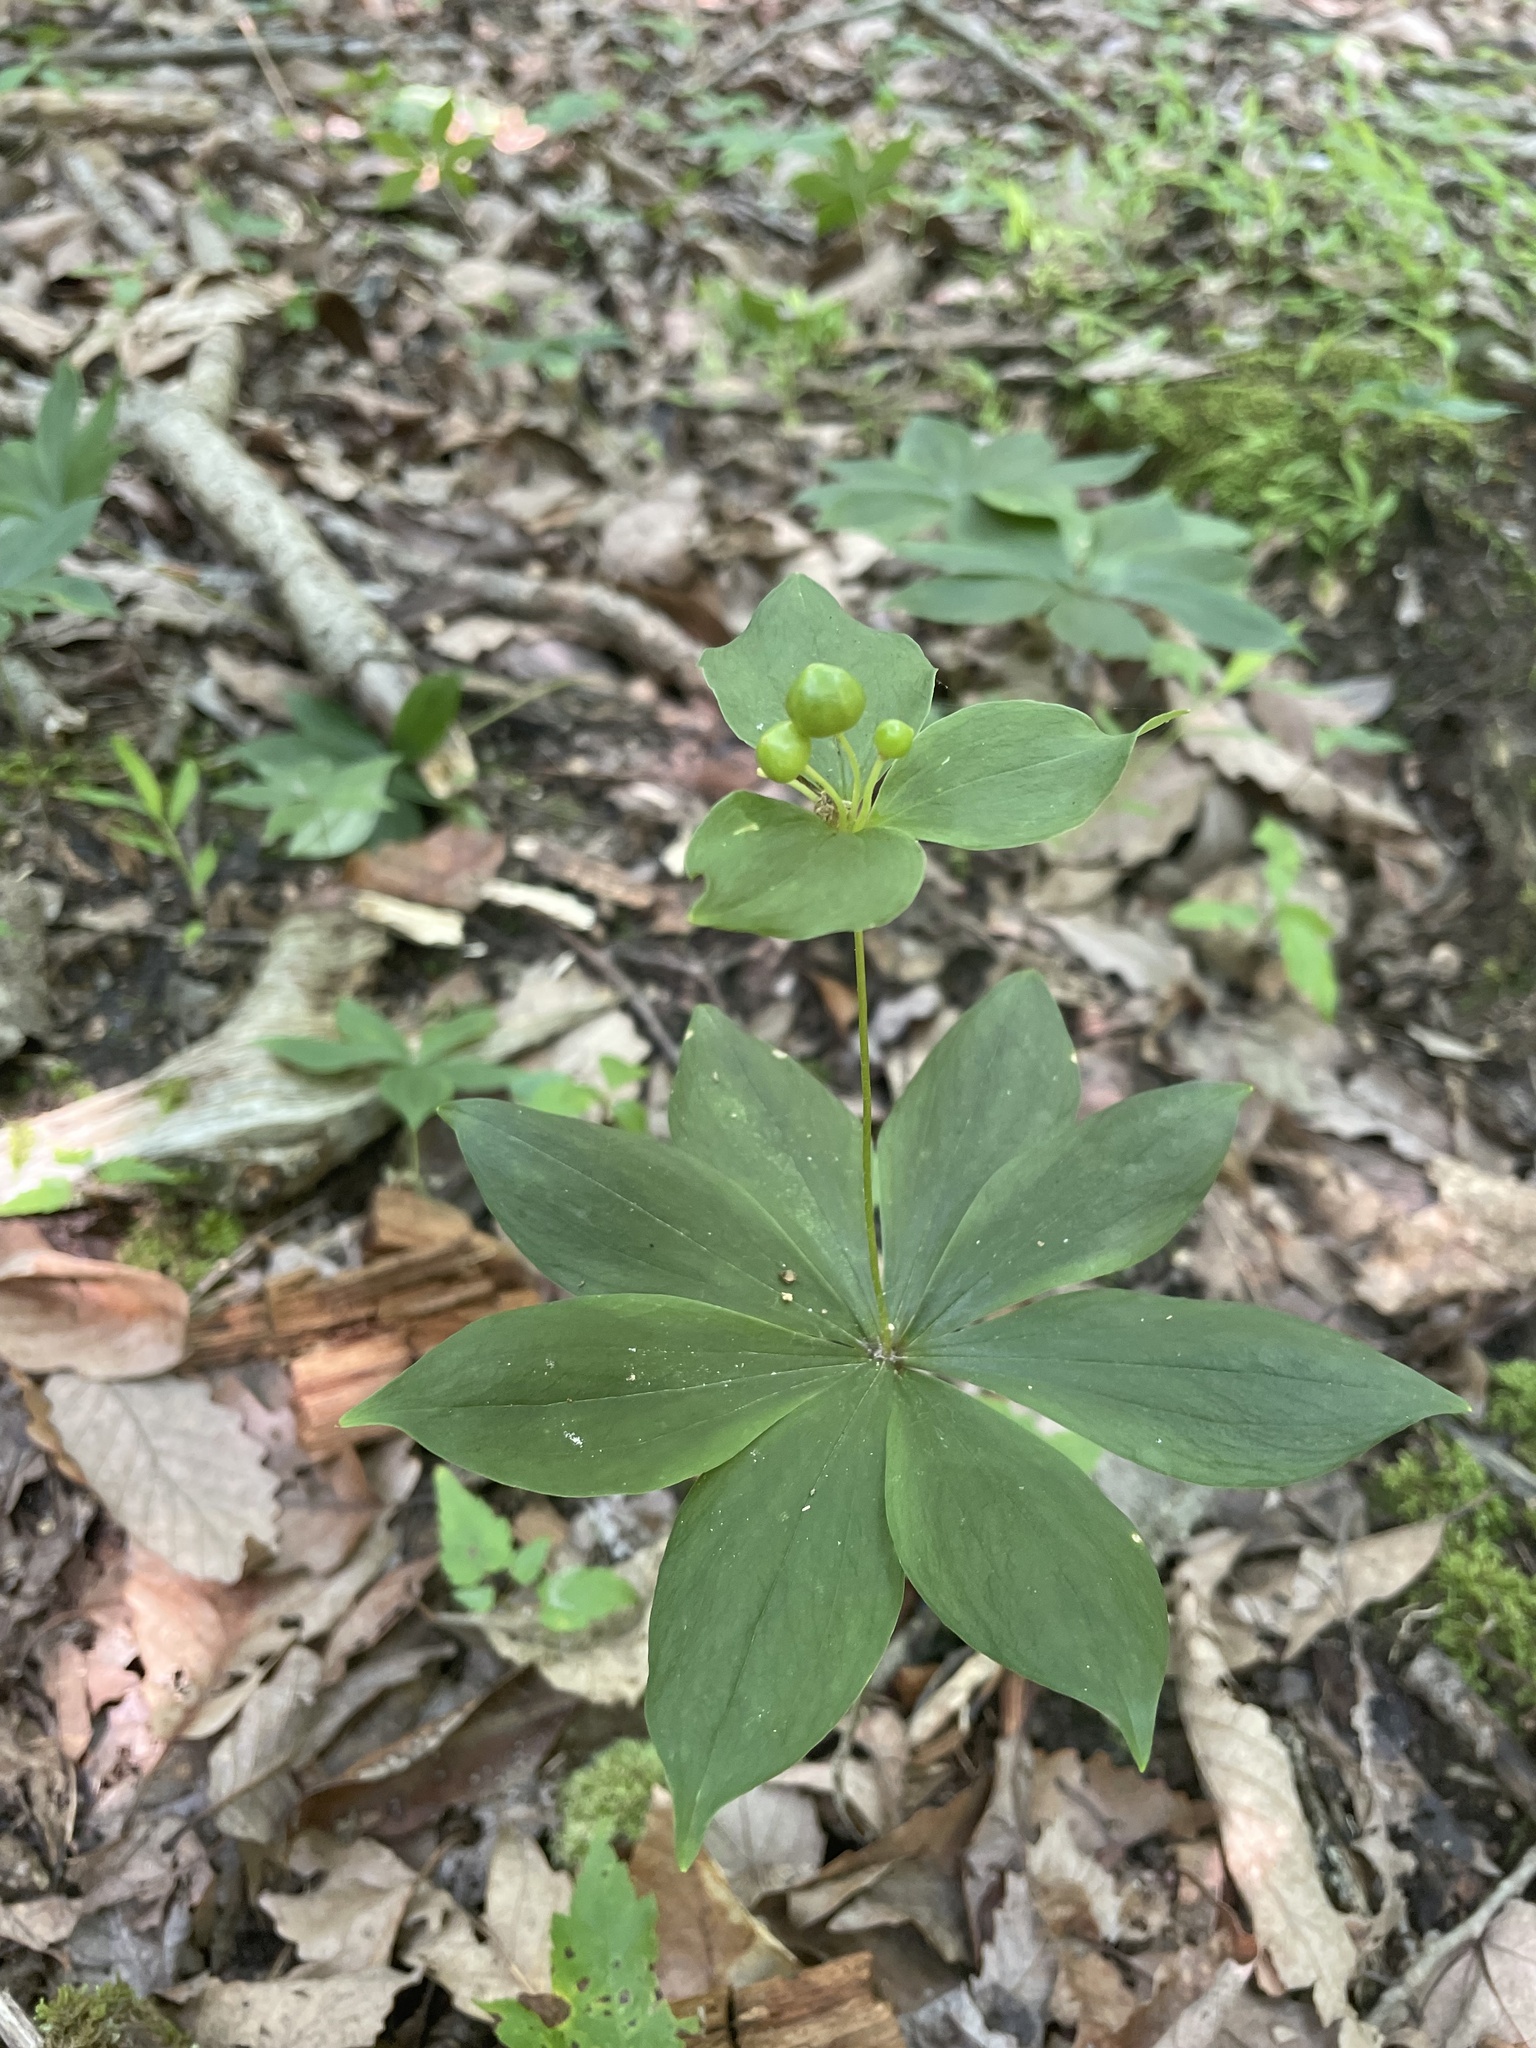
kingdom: Plantae
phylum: Tracheophyta
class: Liliopsida
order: Liliales
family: Liliaceae
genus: Medeola
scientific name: Medeola virginiana
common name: Indian cucumber-root
